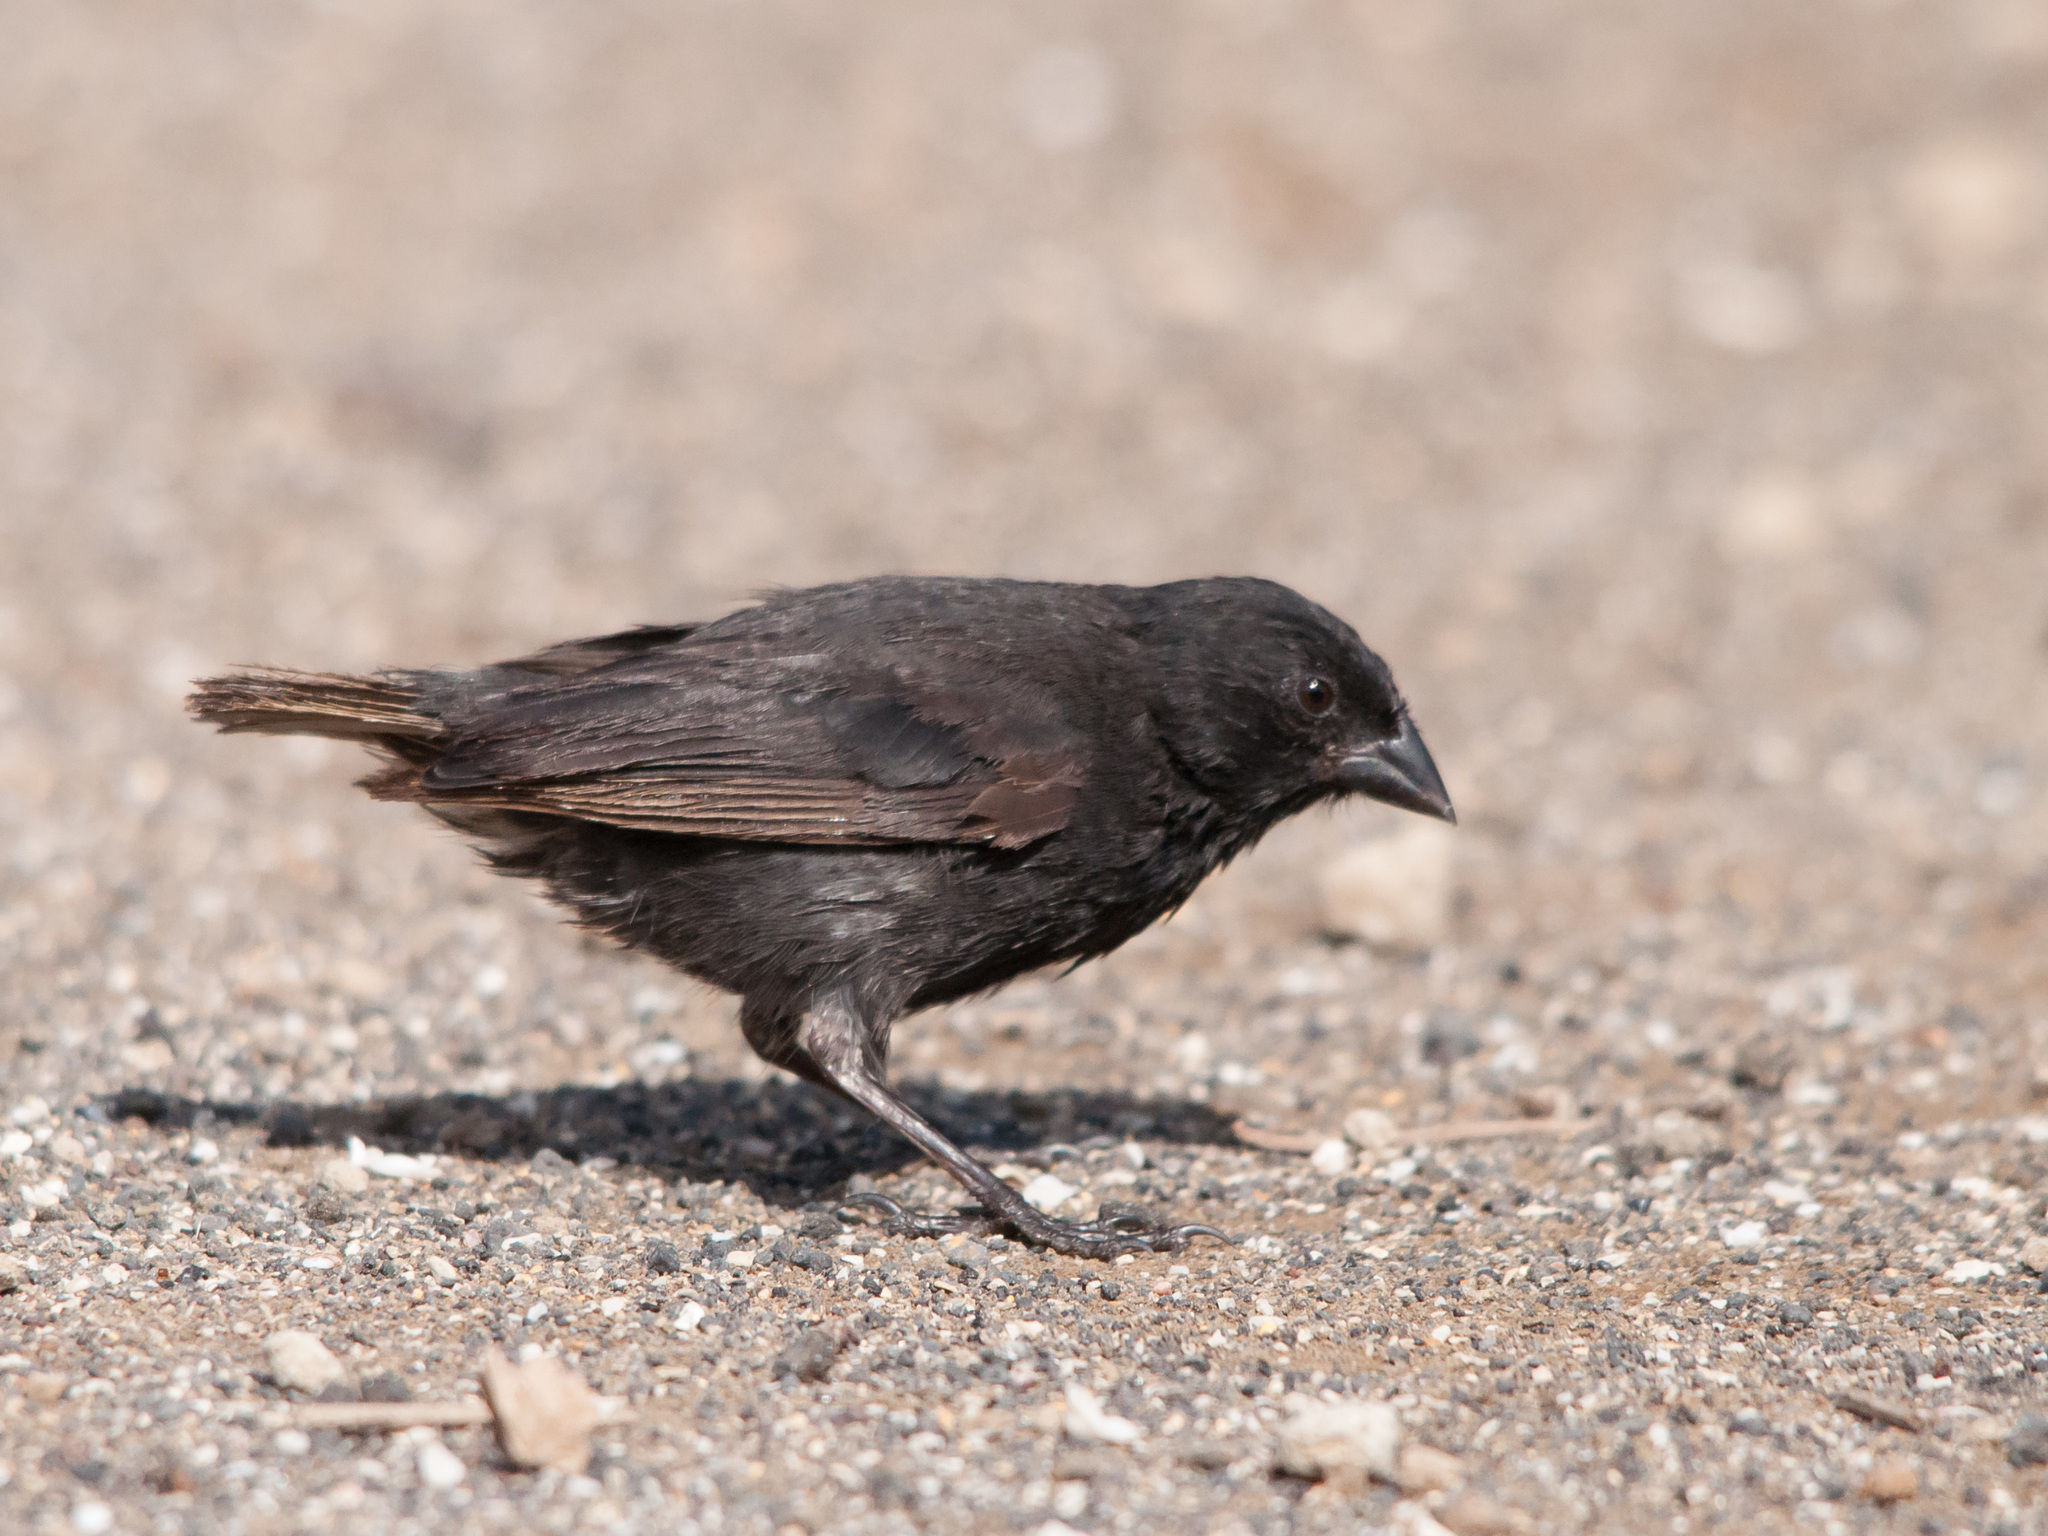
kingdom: Animalia
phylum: Chordata
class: Aves
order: Passeriformes
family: Thraupidae
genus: Geospiza
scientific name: Geospiza fuliginosa
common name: Small ground finch
